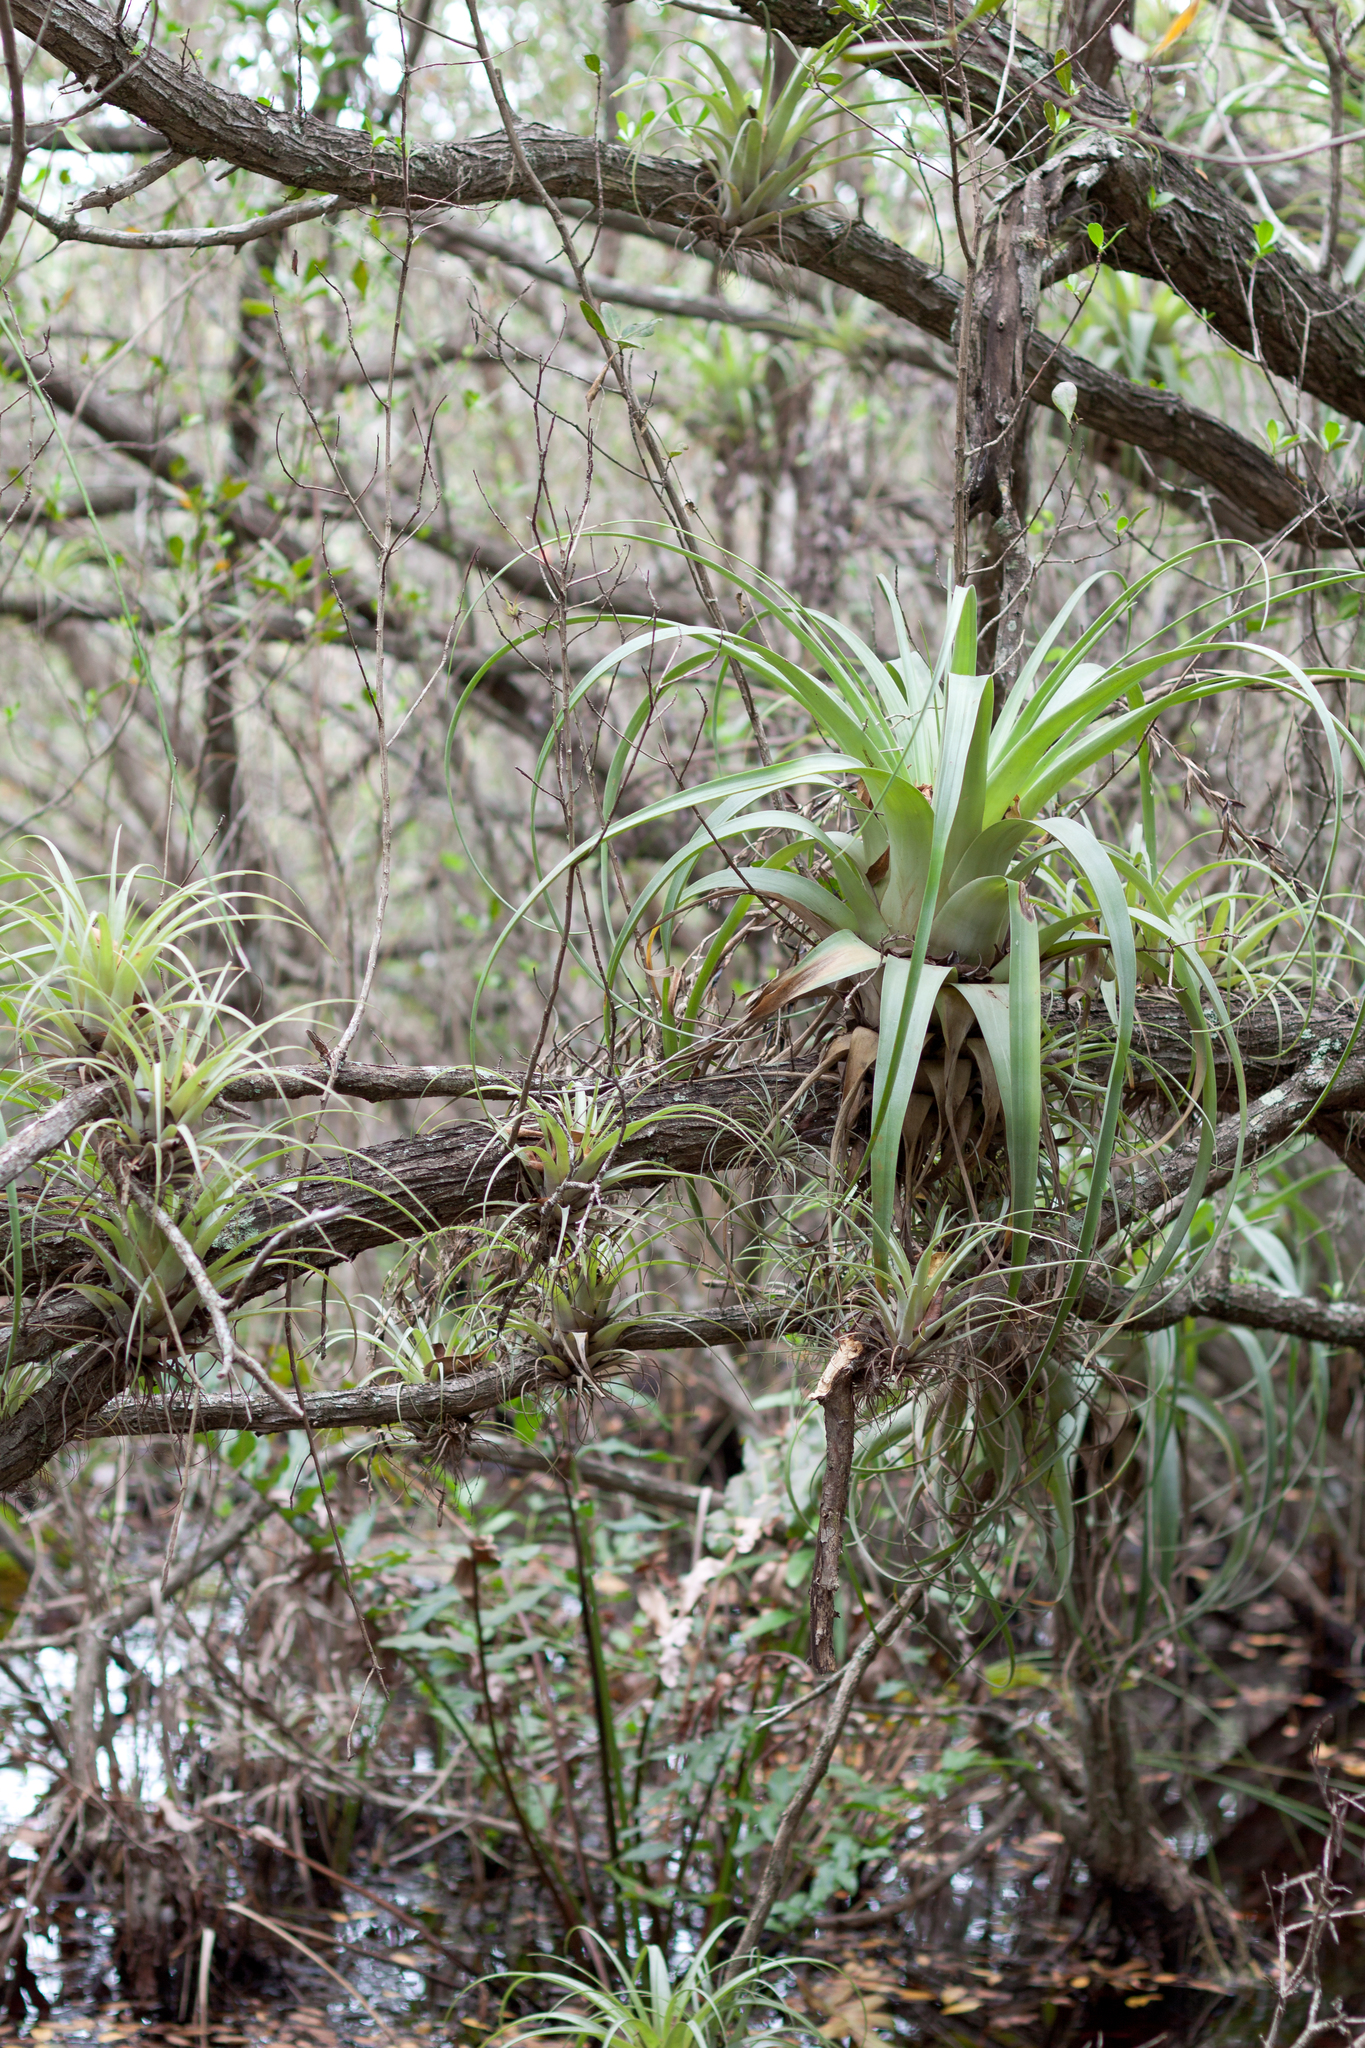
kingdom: Plantae
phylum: Tracheophyta
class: Liliopsida
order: Poales
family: Bromeliaceae
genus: Tillandsia
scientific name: Tillandsia utriculata
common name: Wild pine
